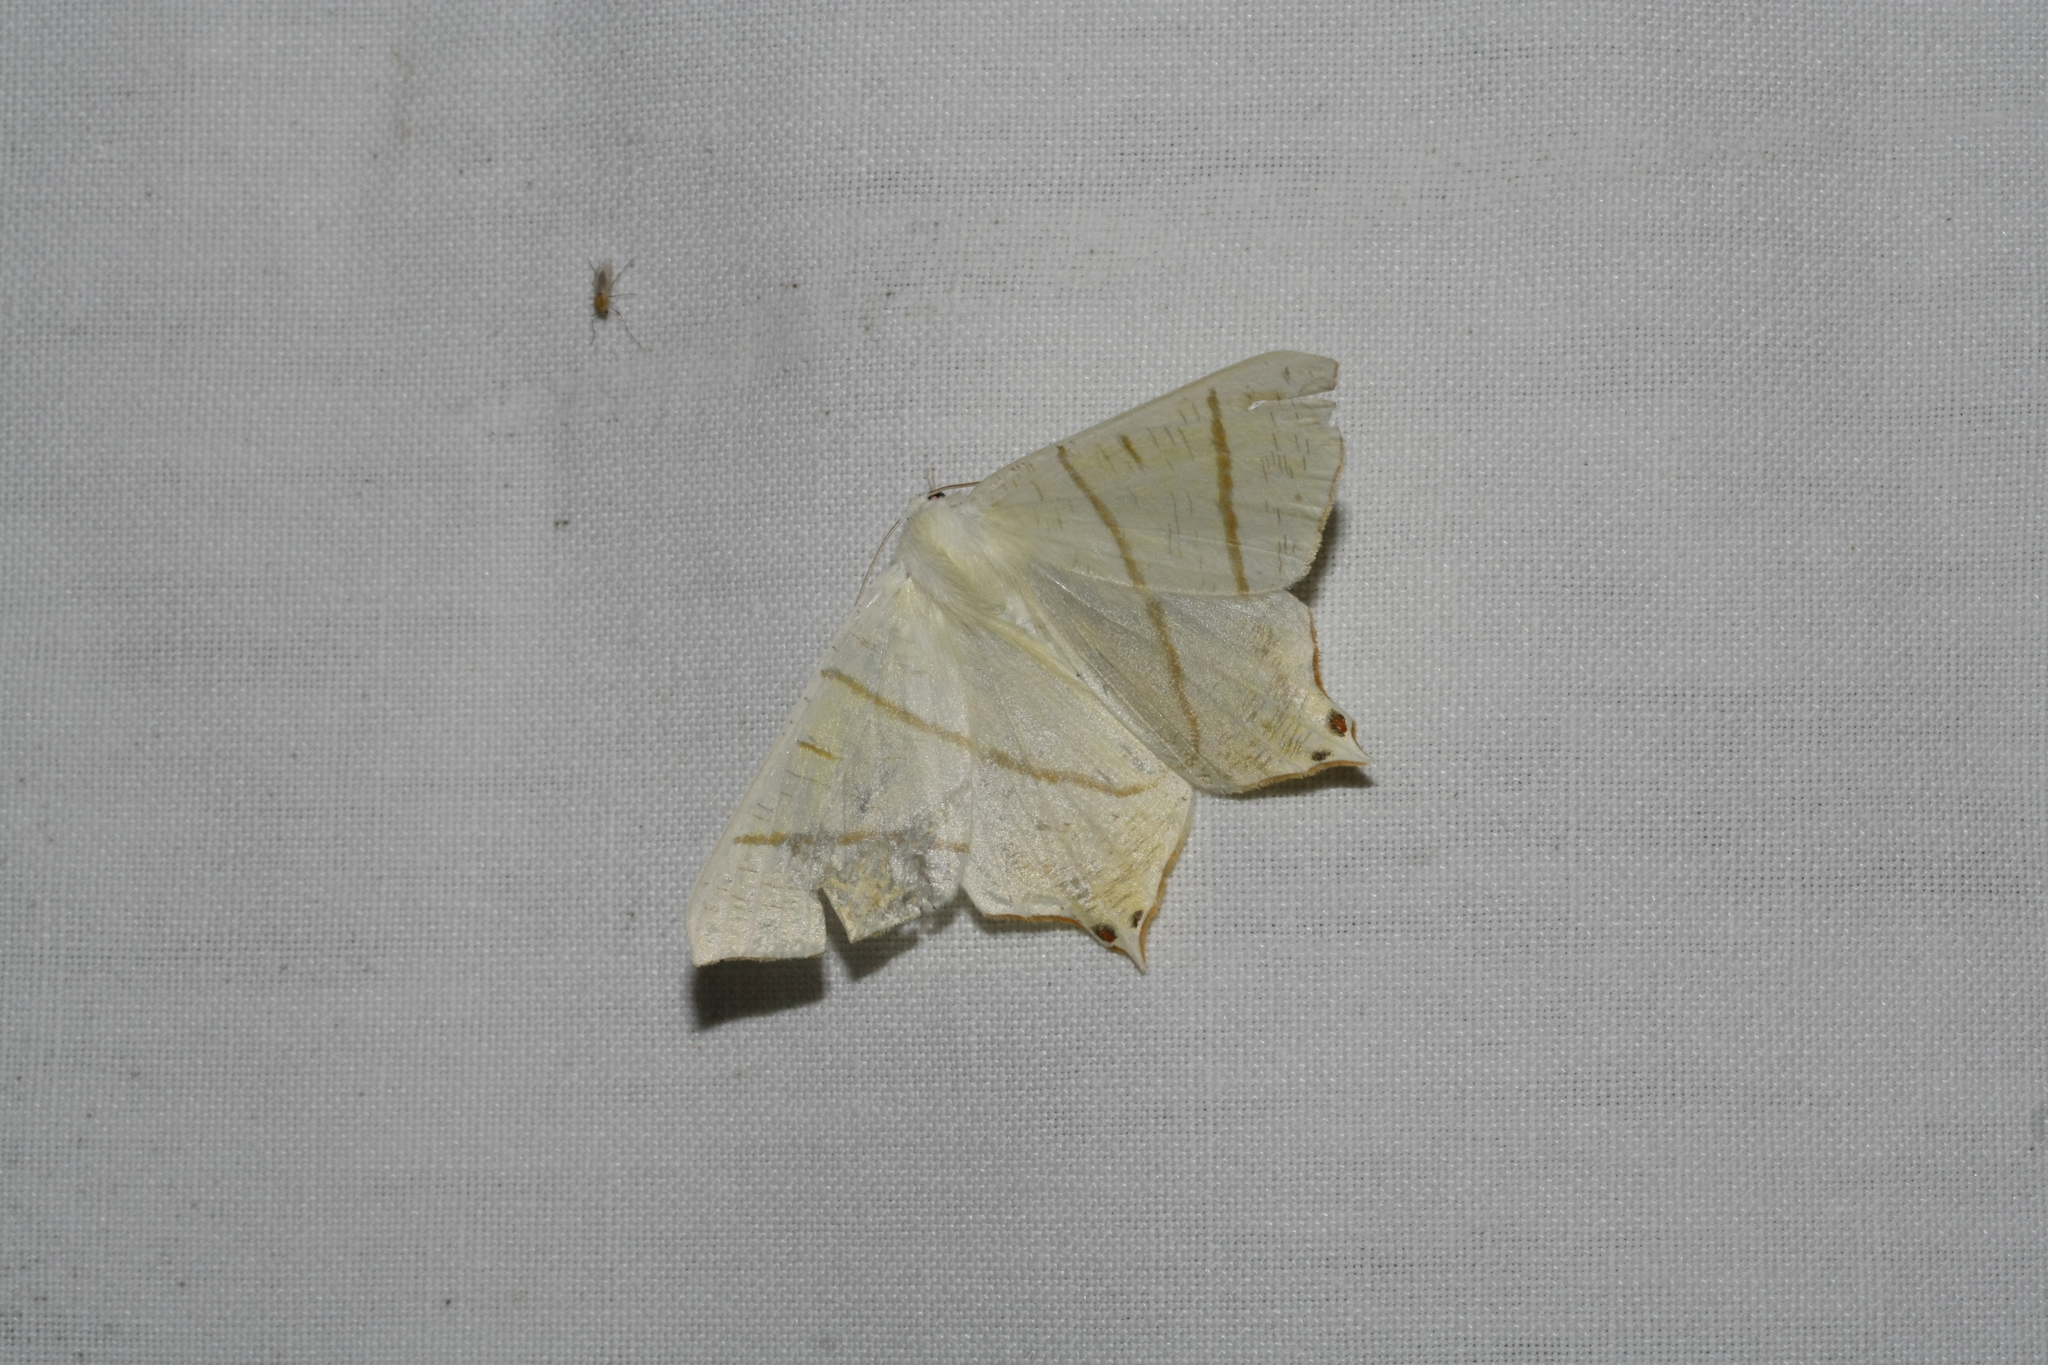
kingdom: Animalia
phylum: Arthropoda
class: Insecta
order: Lepidoptera
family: Geometridae
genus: Ourapteryx
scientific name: Ourapteryx sambucaria
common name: Swallow-tailed moth
